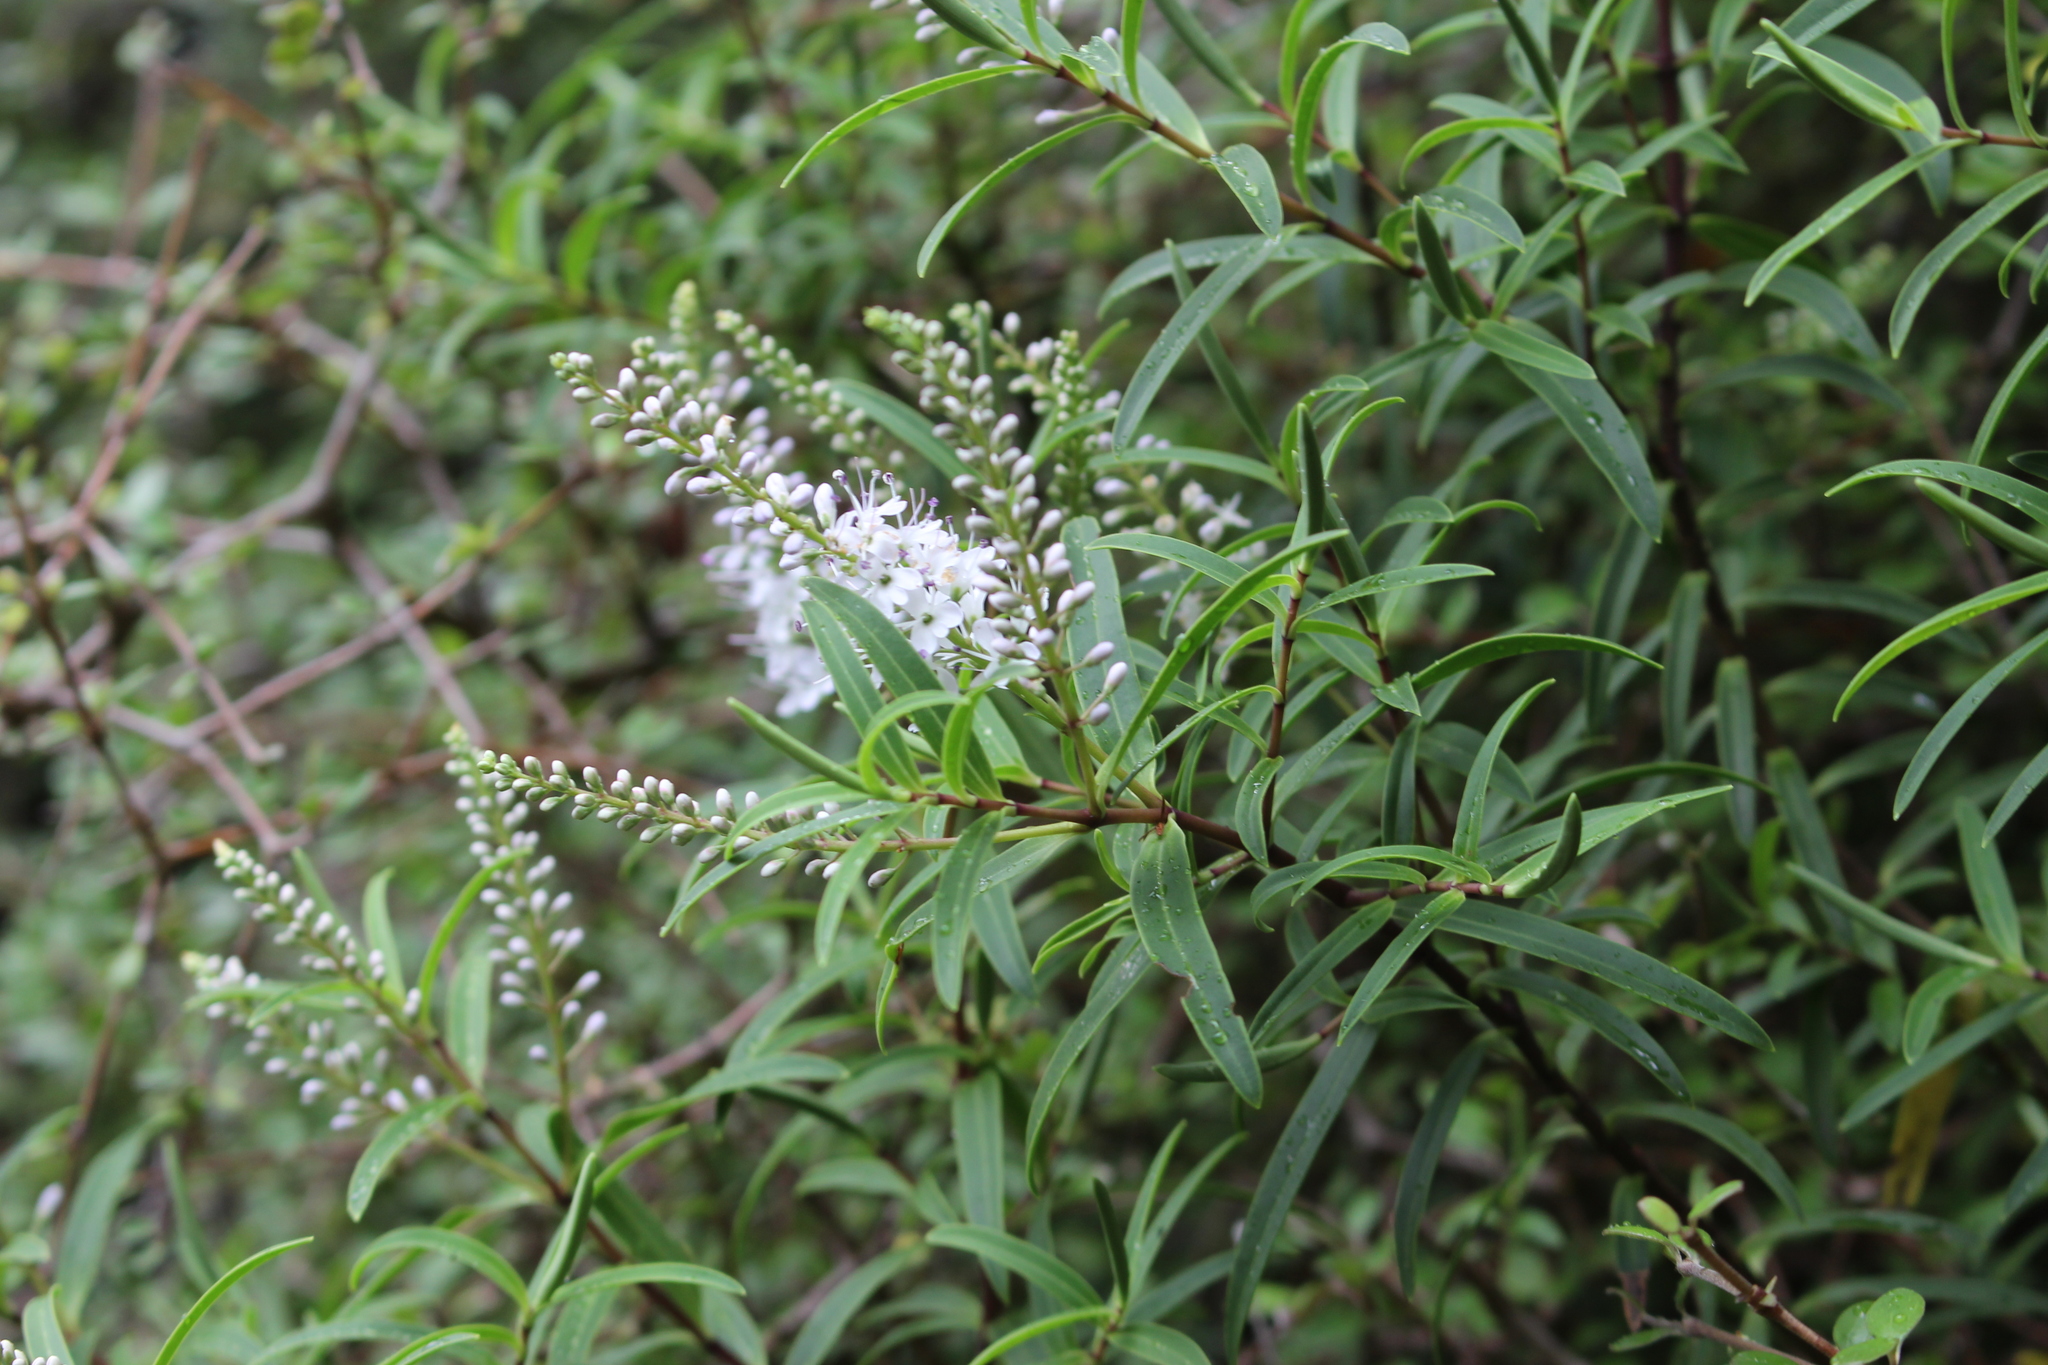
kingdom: Plantae
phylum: Tracheophyta
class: Magnoliopsida
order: Lamiales
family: Plantaginaceae
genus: Veronica
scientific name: Veronica strictissima
